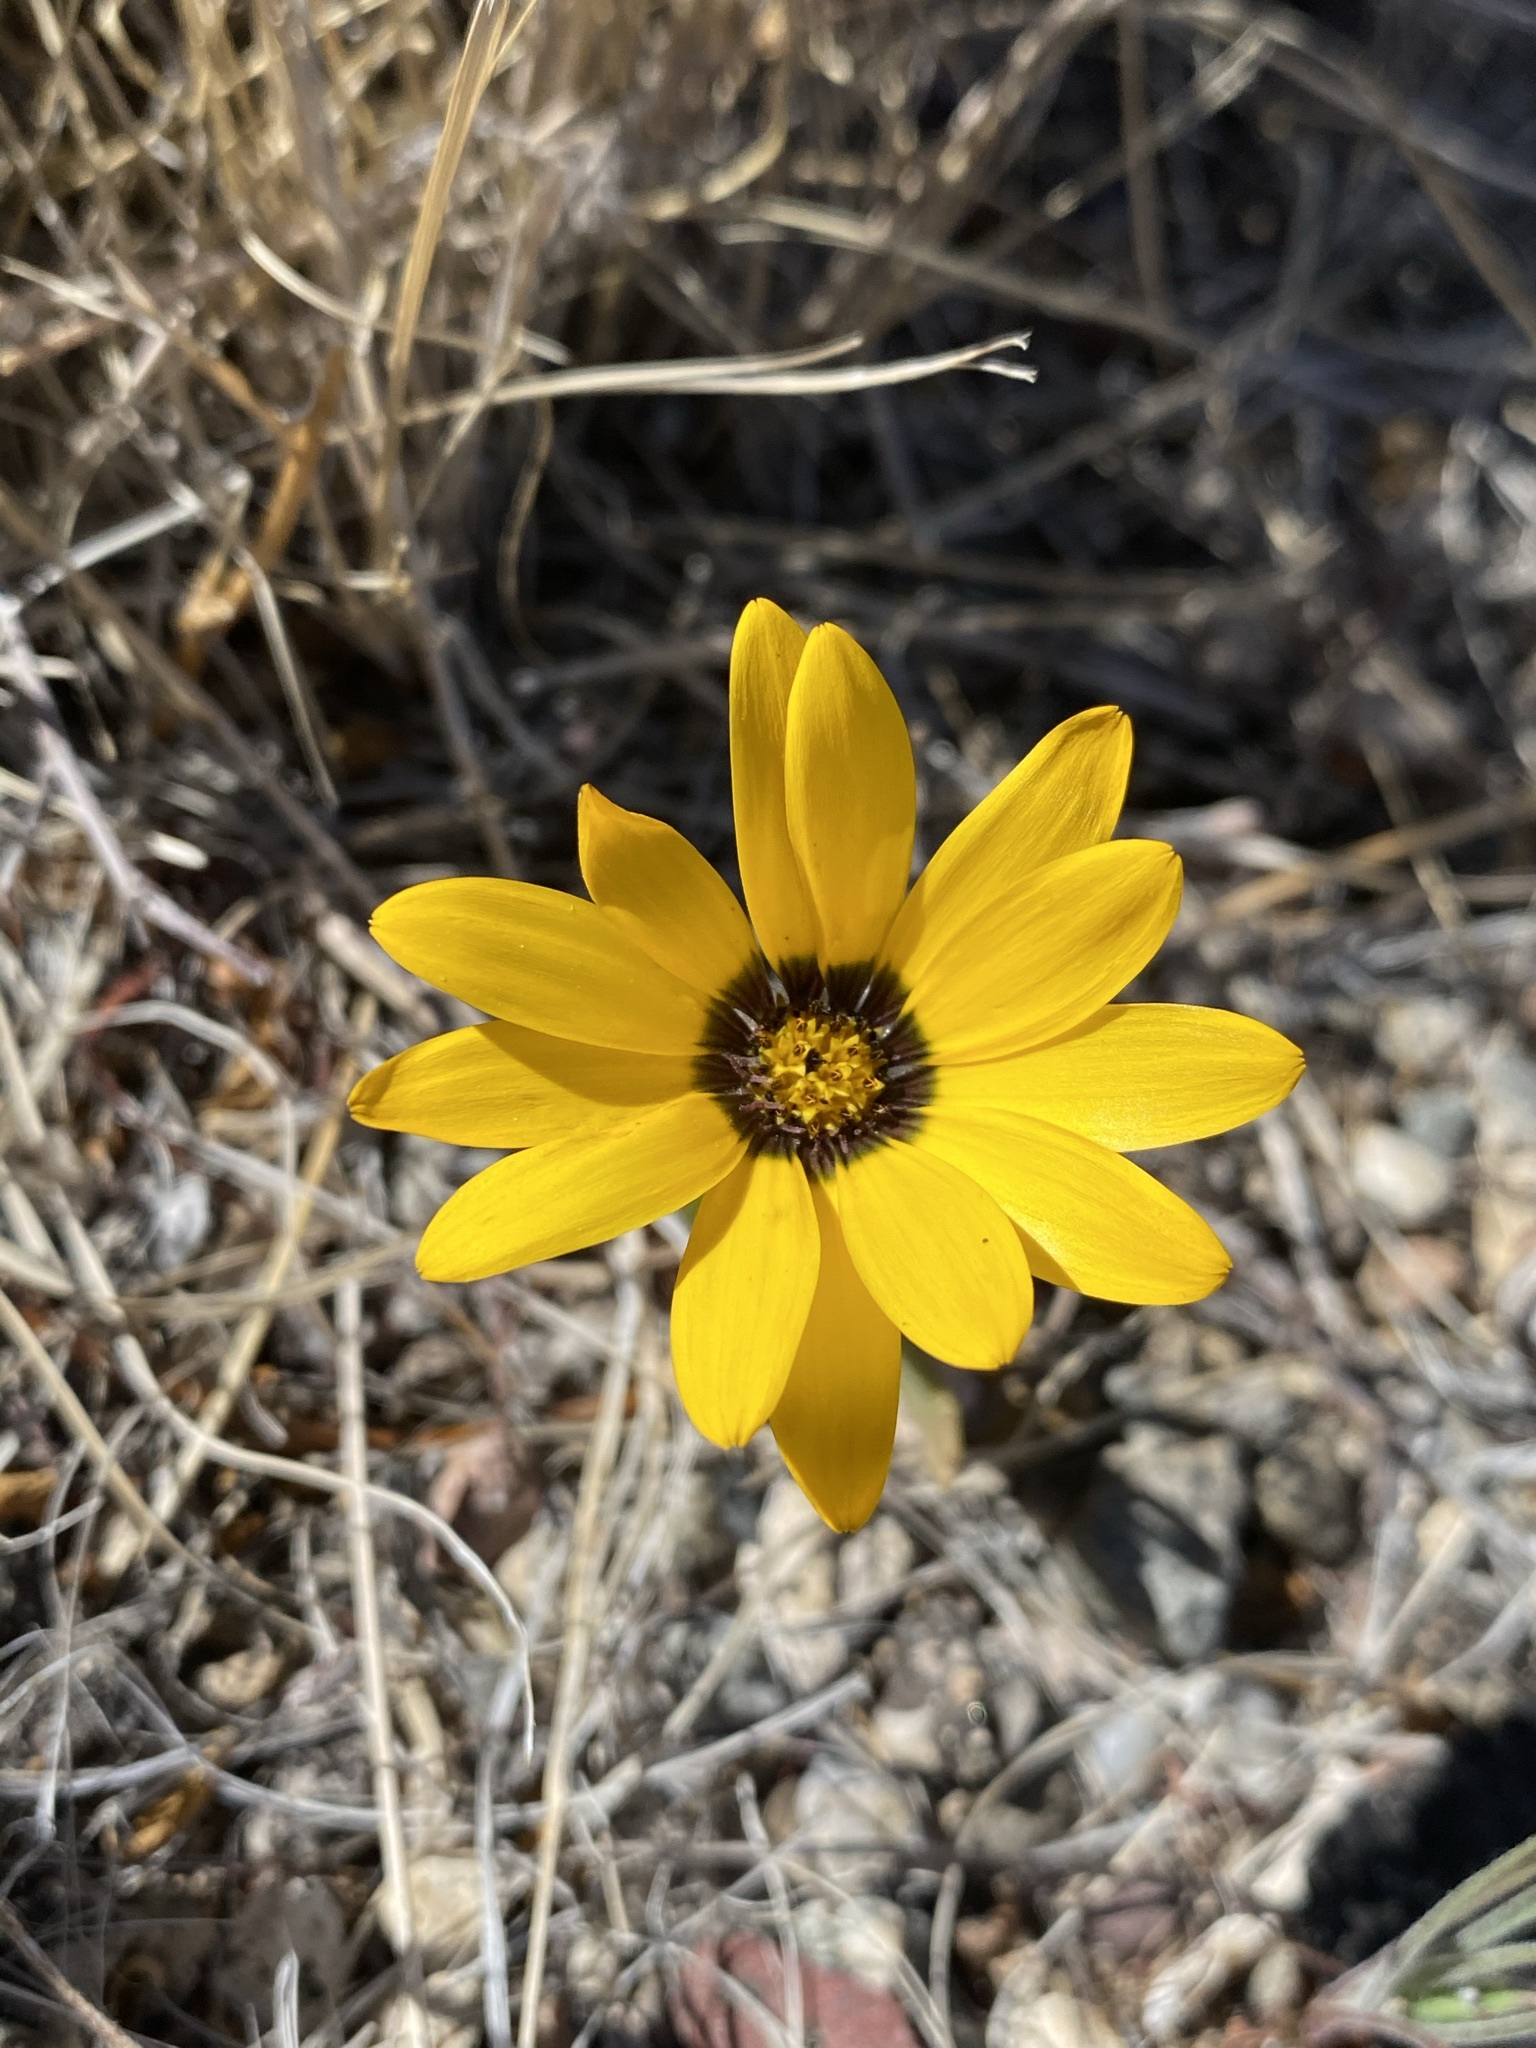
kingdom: Plantae
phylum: Tracheophyta
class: Magnoliopsida
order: Asterales
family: Asteraceae
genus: Dimorphotheca
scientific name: Dimorphotheca sinuata
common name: Glandular cape marigold
